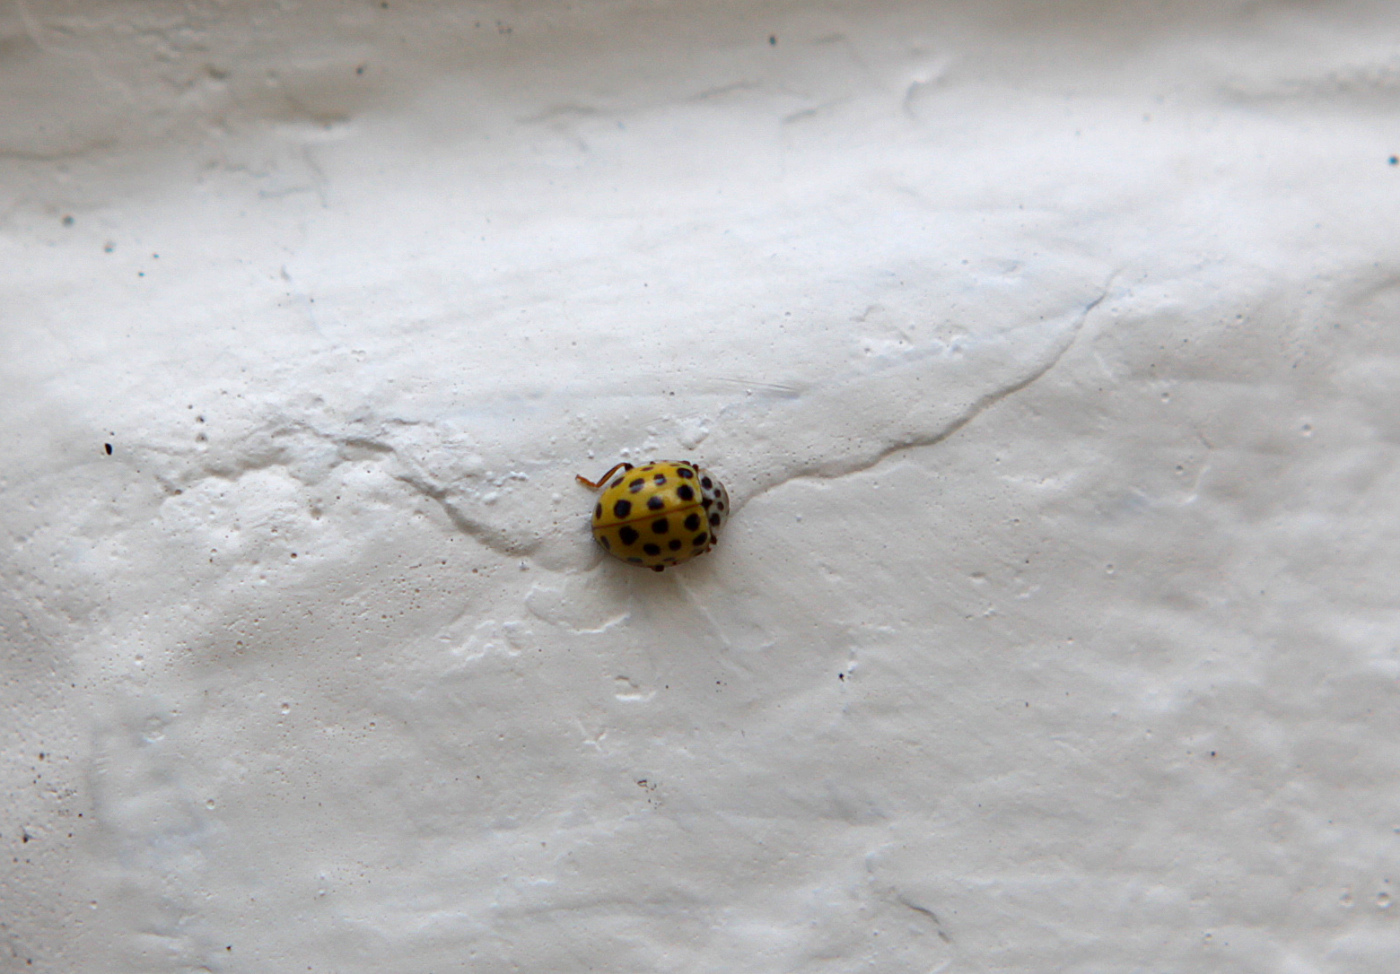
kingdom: Animalia
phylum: Arthropoda
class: Insecta
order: Coleoptera
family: Coccinellidae
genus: Psyllobora
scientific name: Psyllobora vigintiduopunctata
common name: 22-spot ladybird
